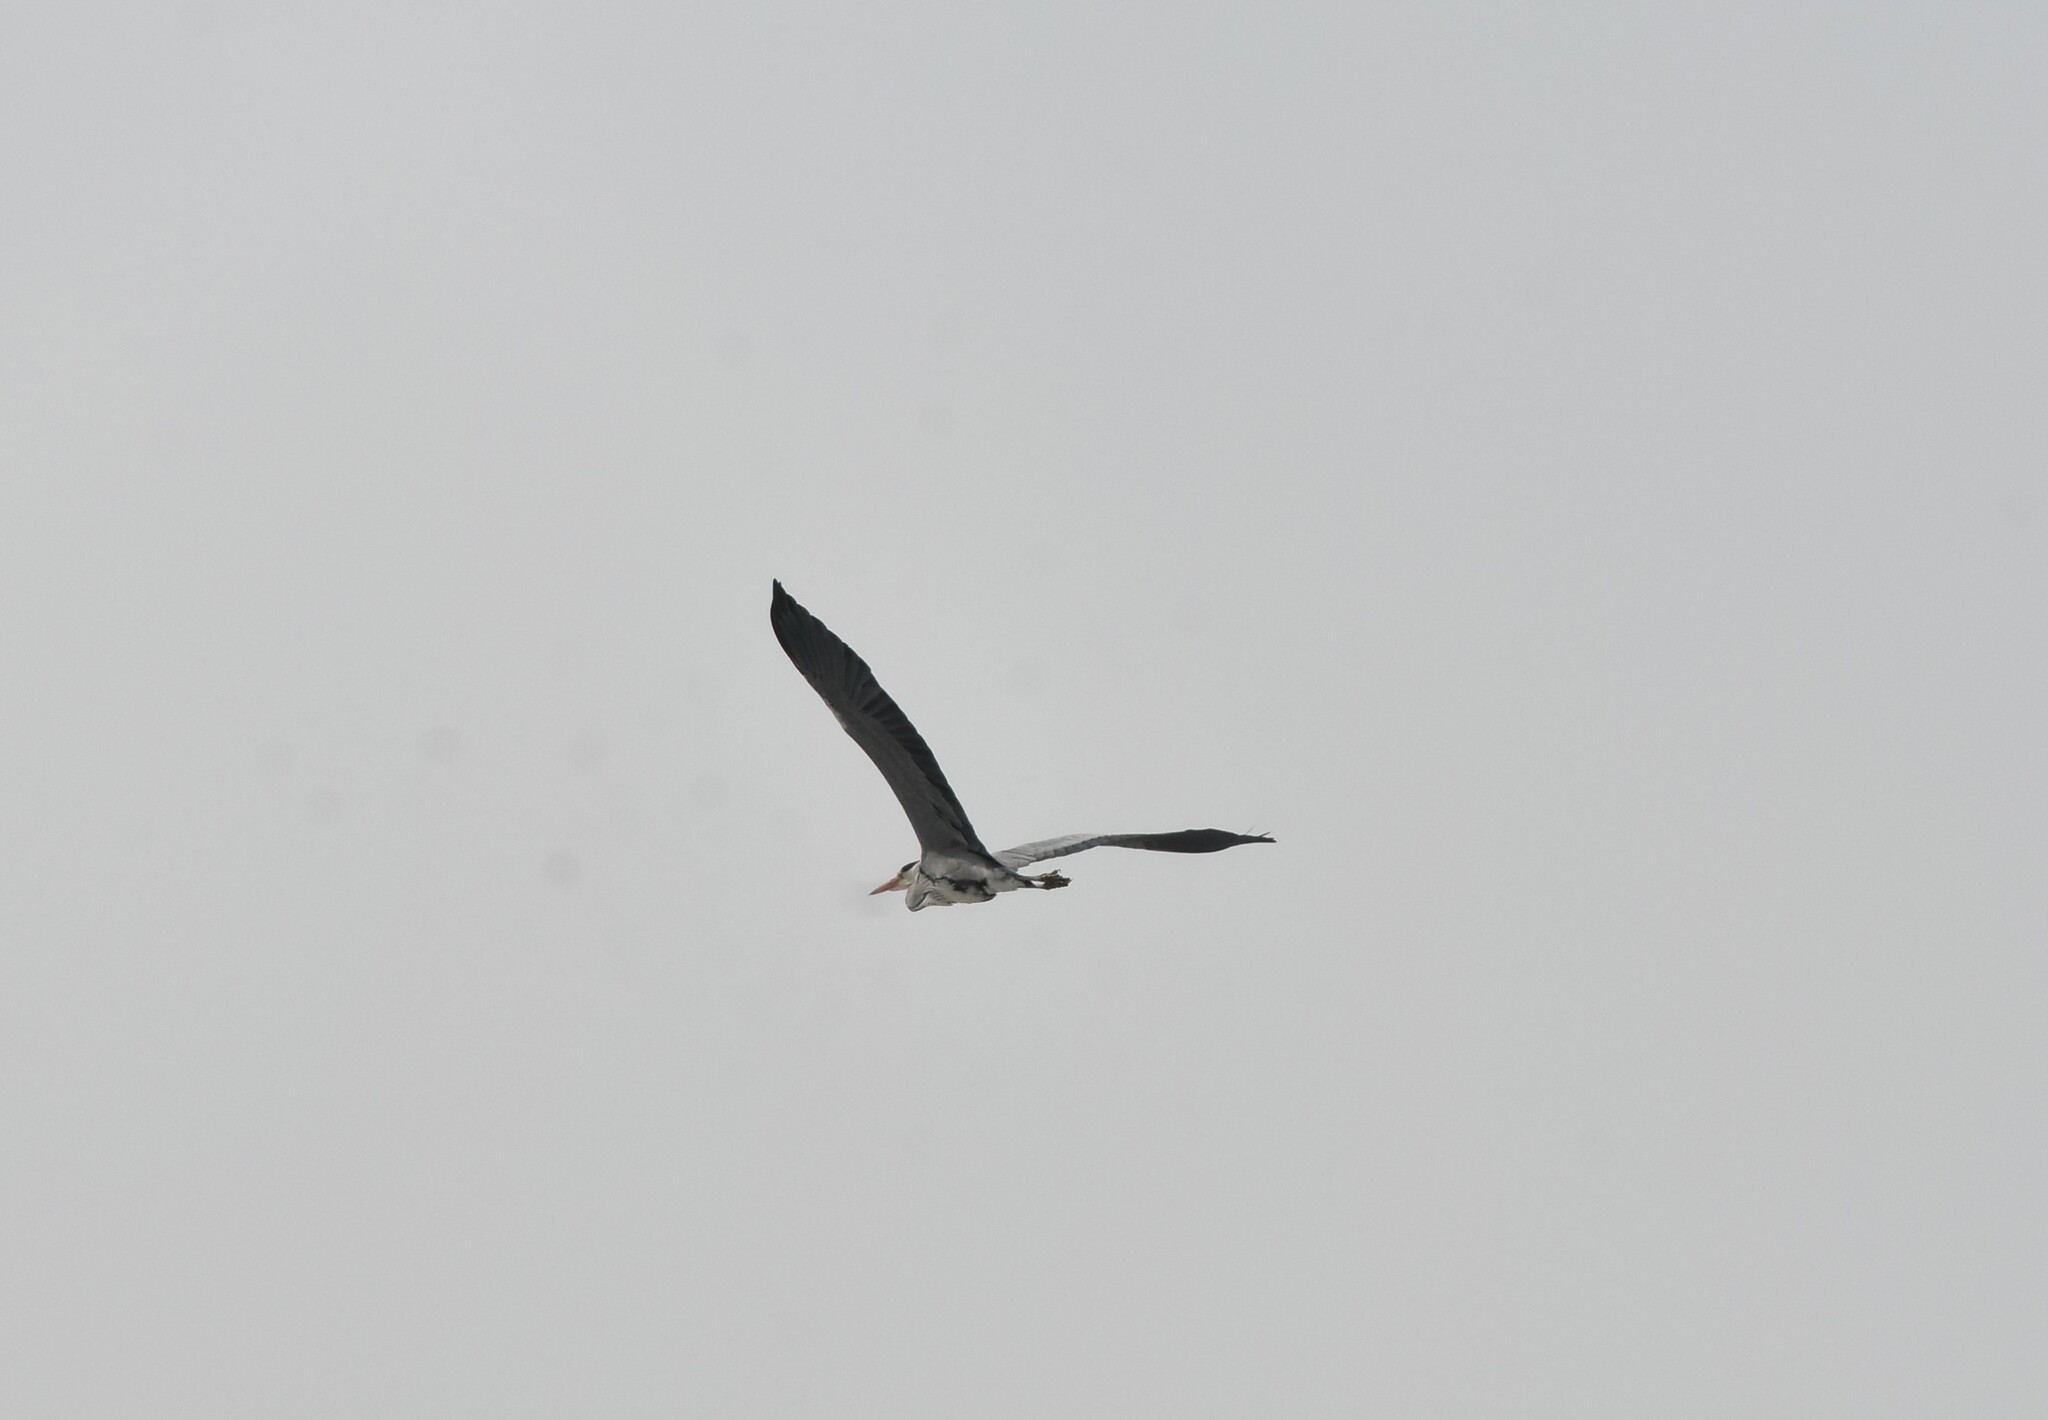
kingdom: Animalia
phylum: Chordata
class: Aves
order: Pelecaniformes
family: Ardeidae
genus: Ardea
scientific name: Ardea cinerea
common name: Grey heron
